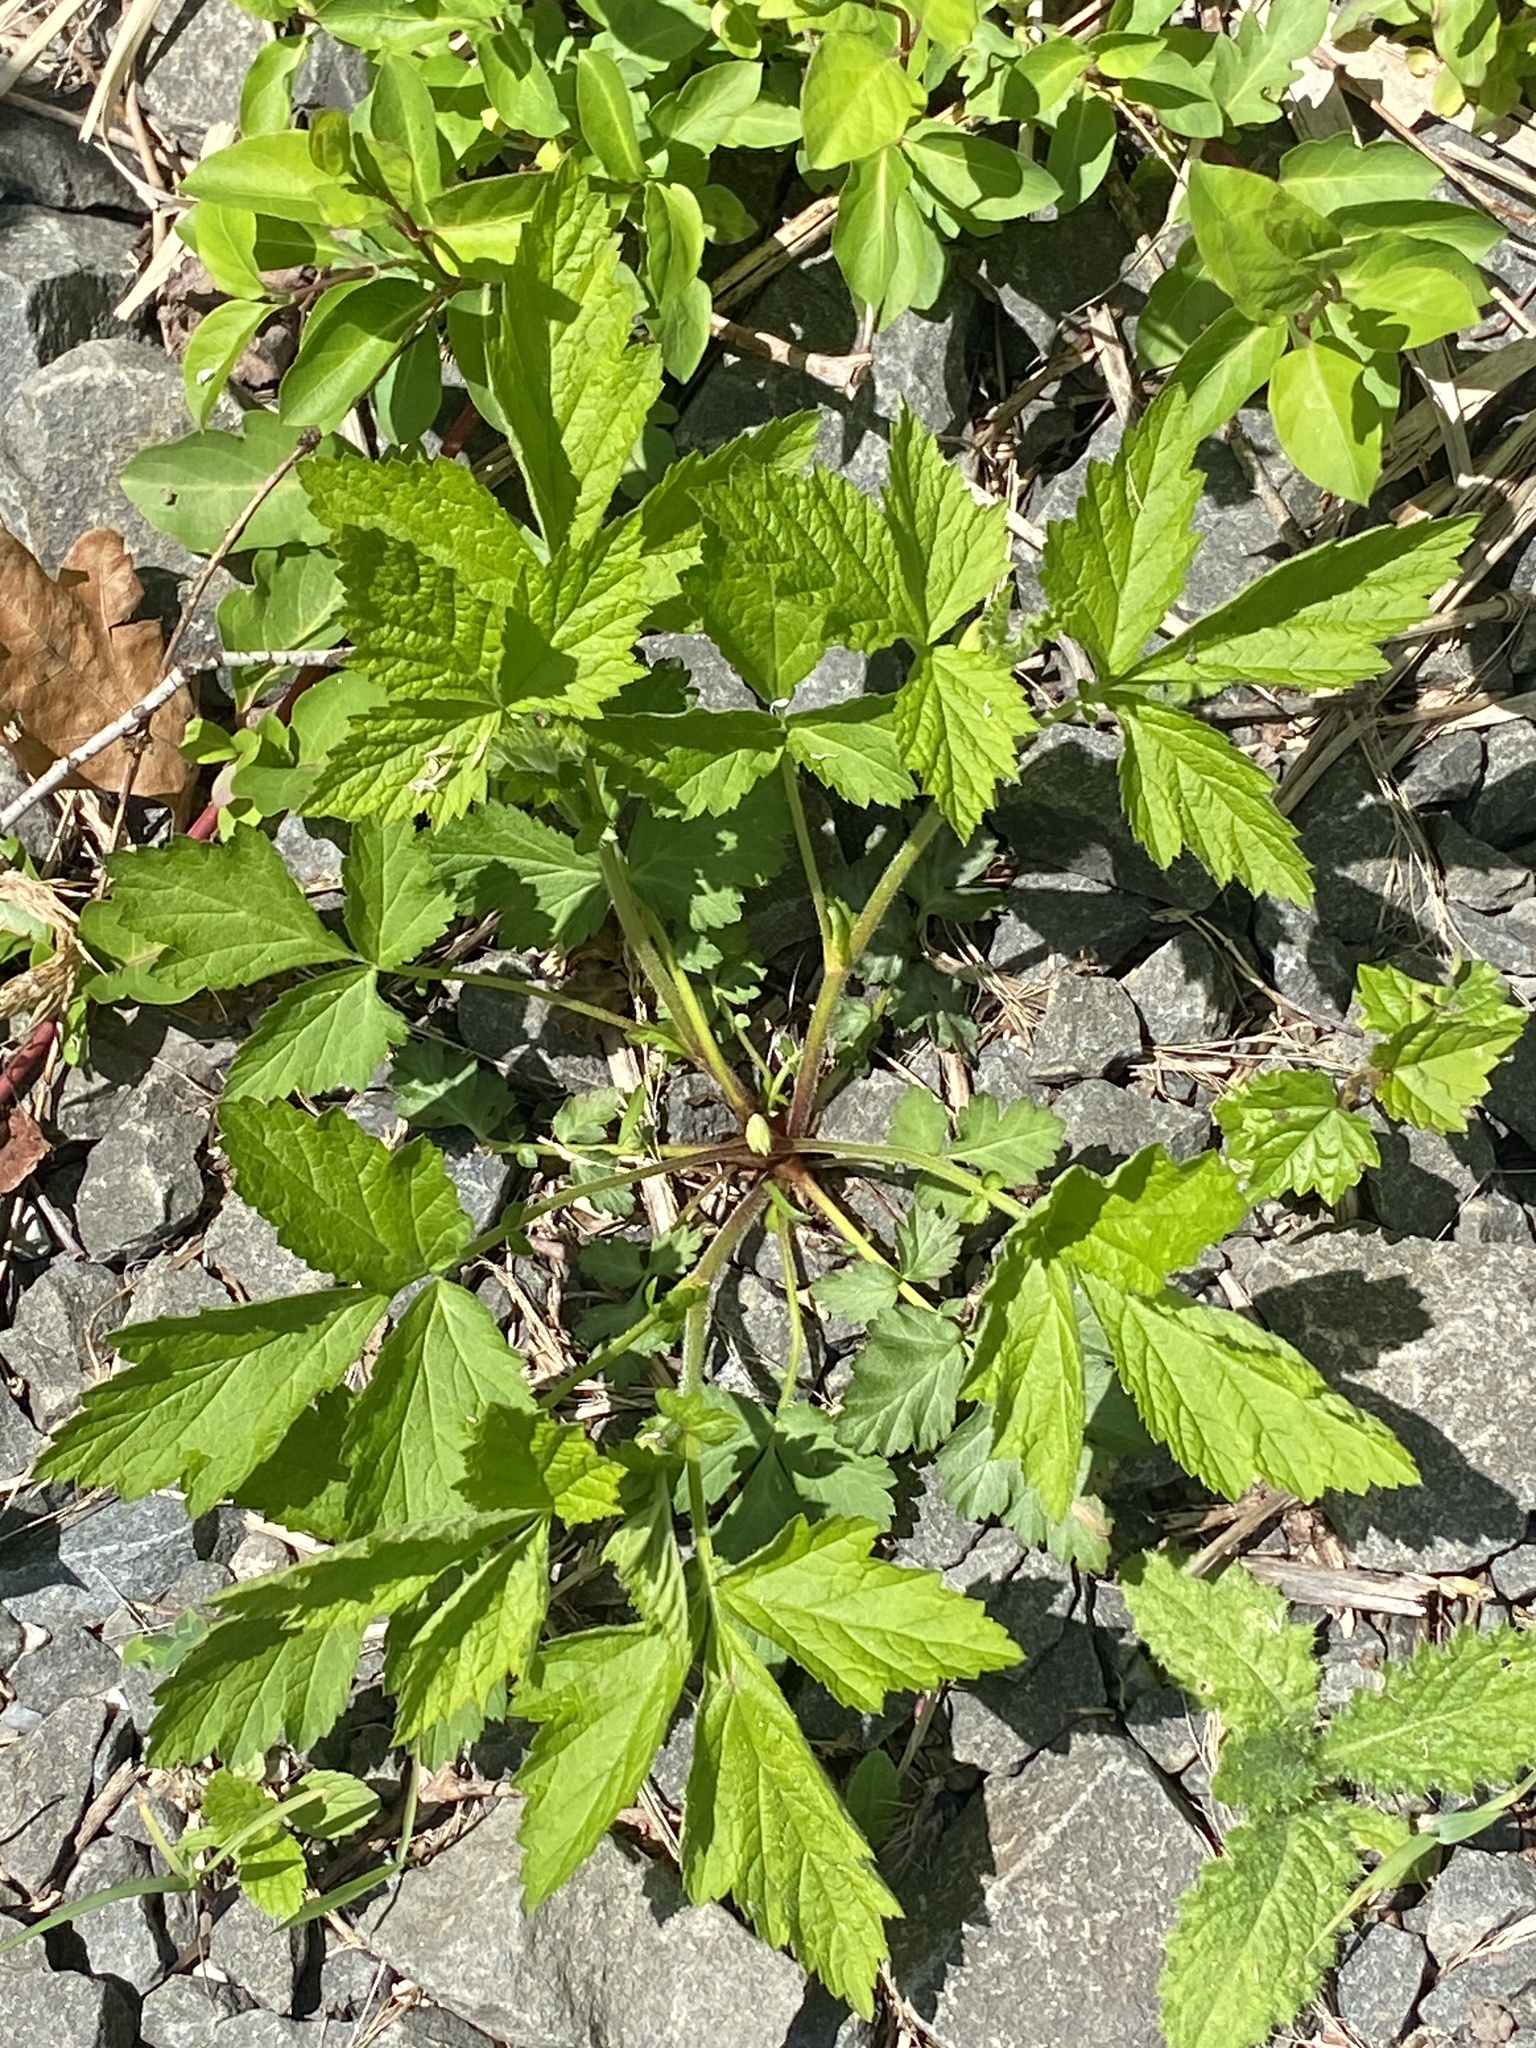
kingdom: Plantae
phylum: Tracheophyta
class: Magnoliopsida
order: Rosales
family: Rosaceae
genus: Geum
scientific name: Geum canadense
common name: White avens
